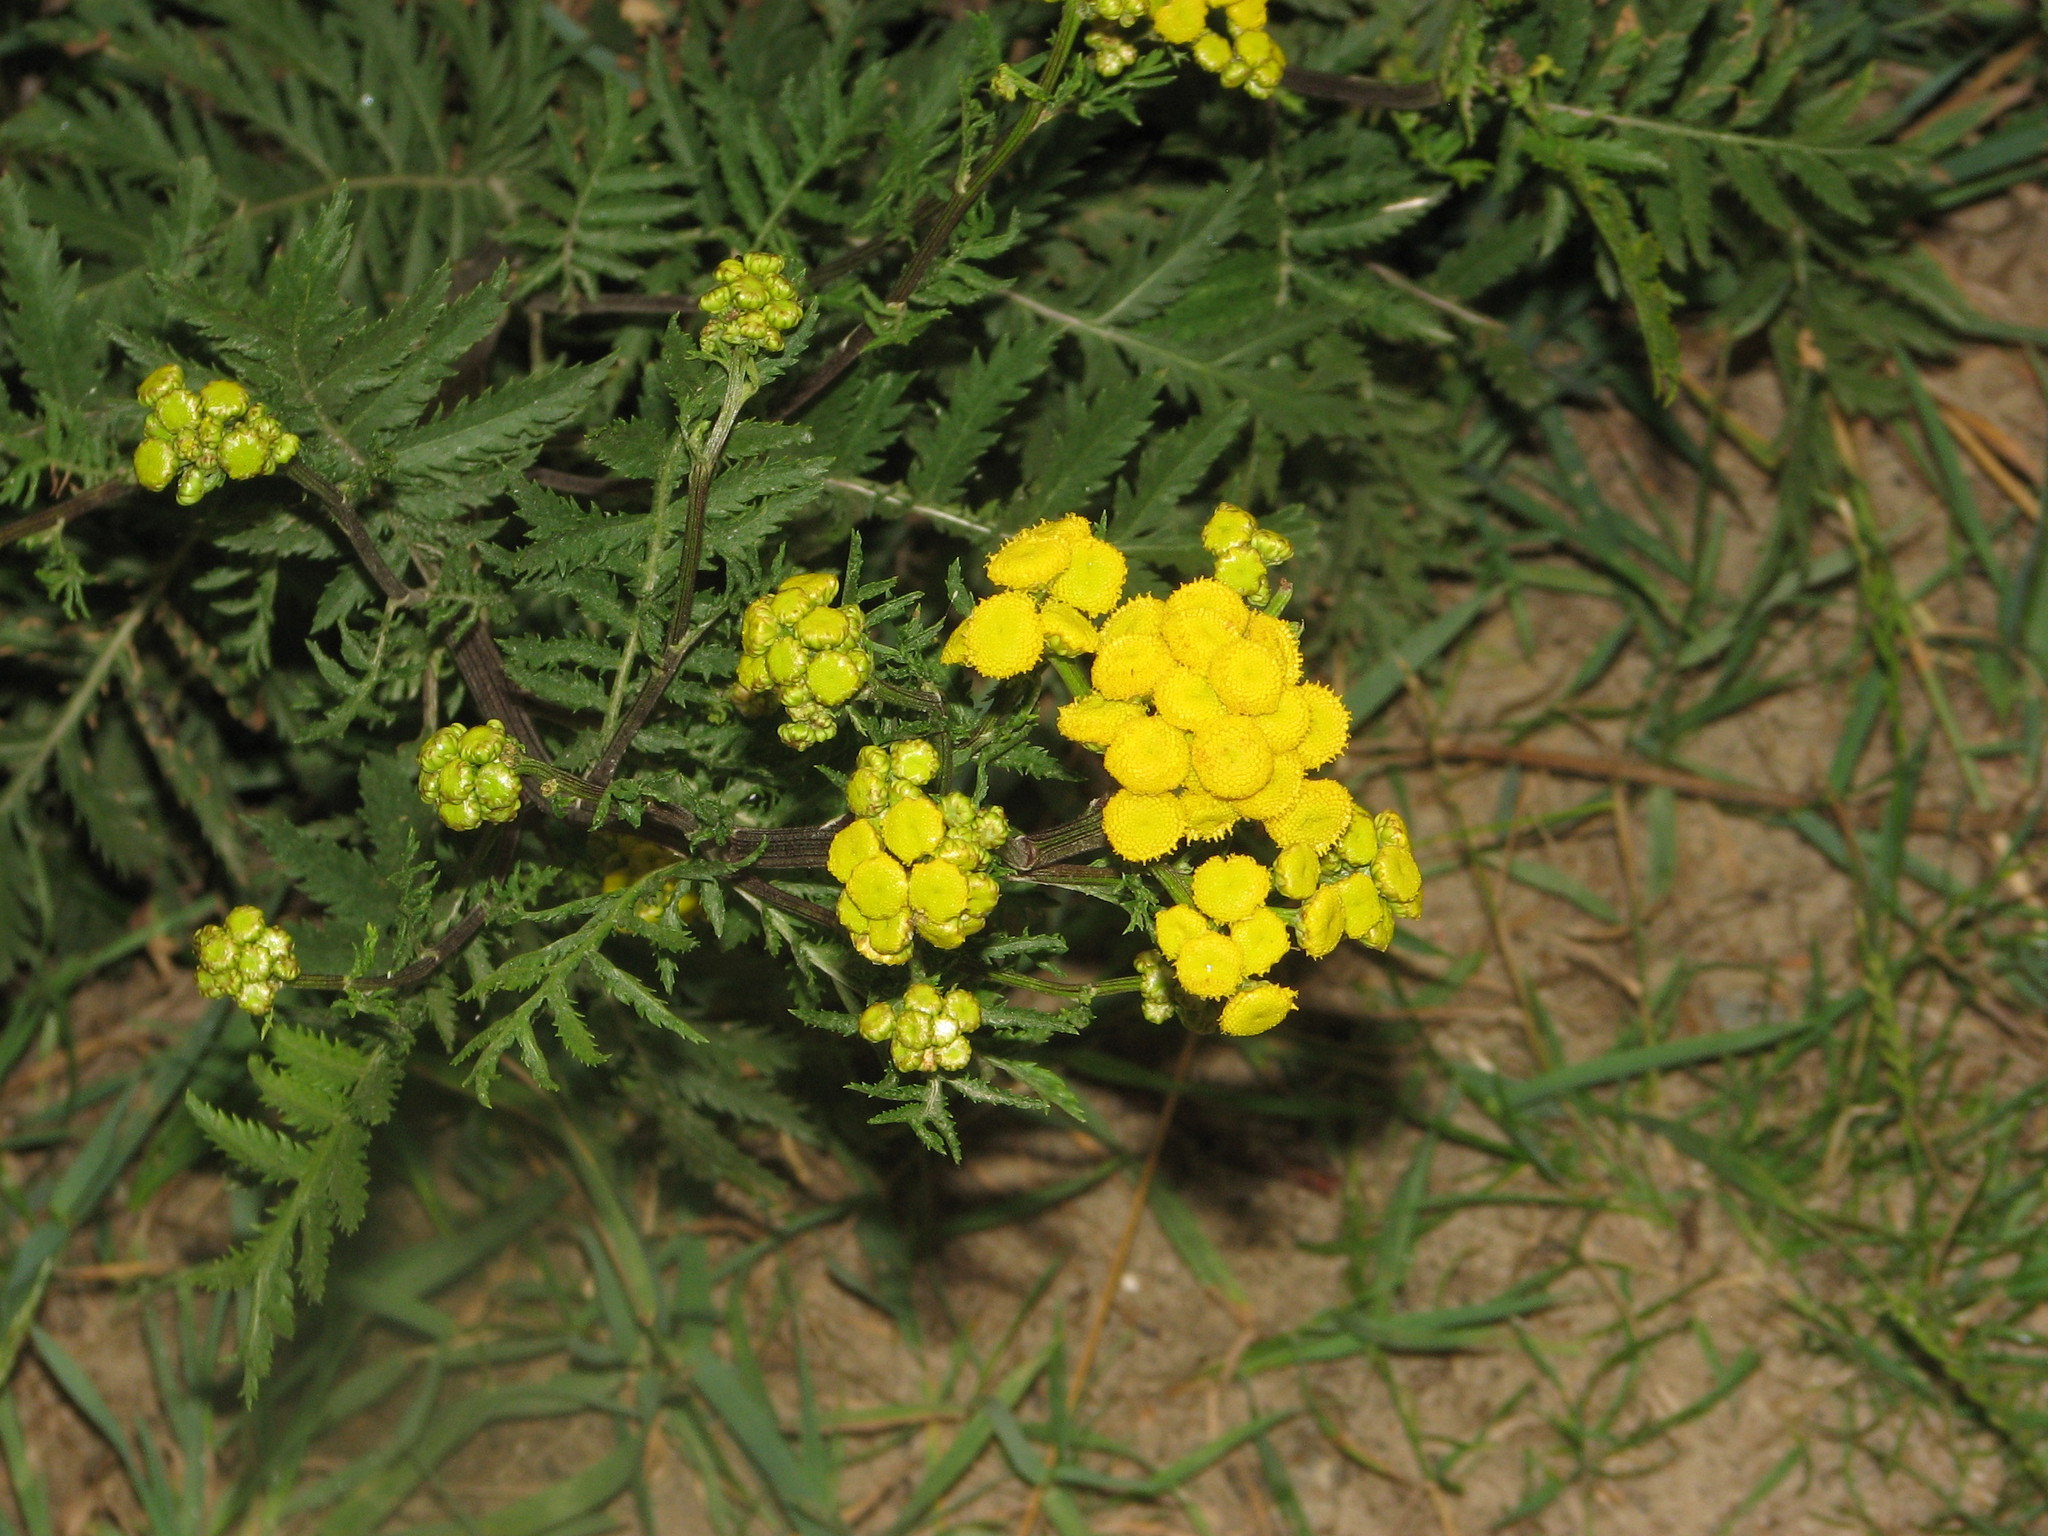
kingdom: Plantae
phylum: Tracheophyta
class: Magnoliopsida
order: Asterales
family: Asteraceae
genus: Tanacetum
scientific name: Tanacetum vulgare
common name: Common tansy
